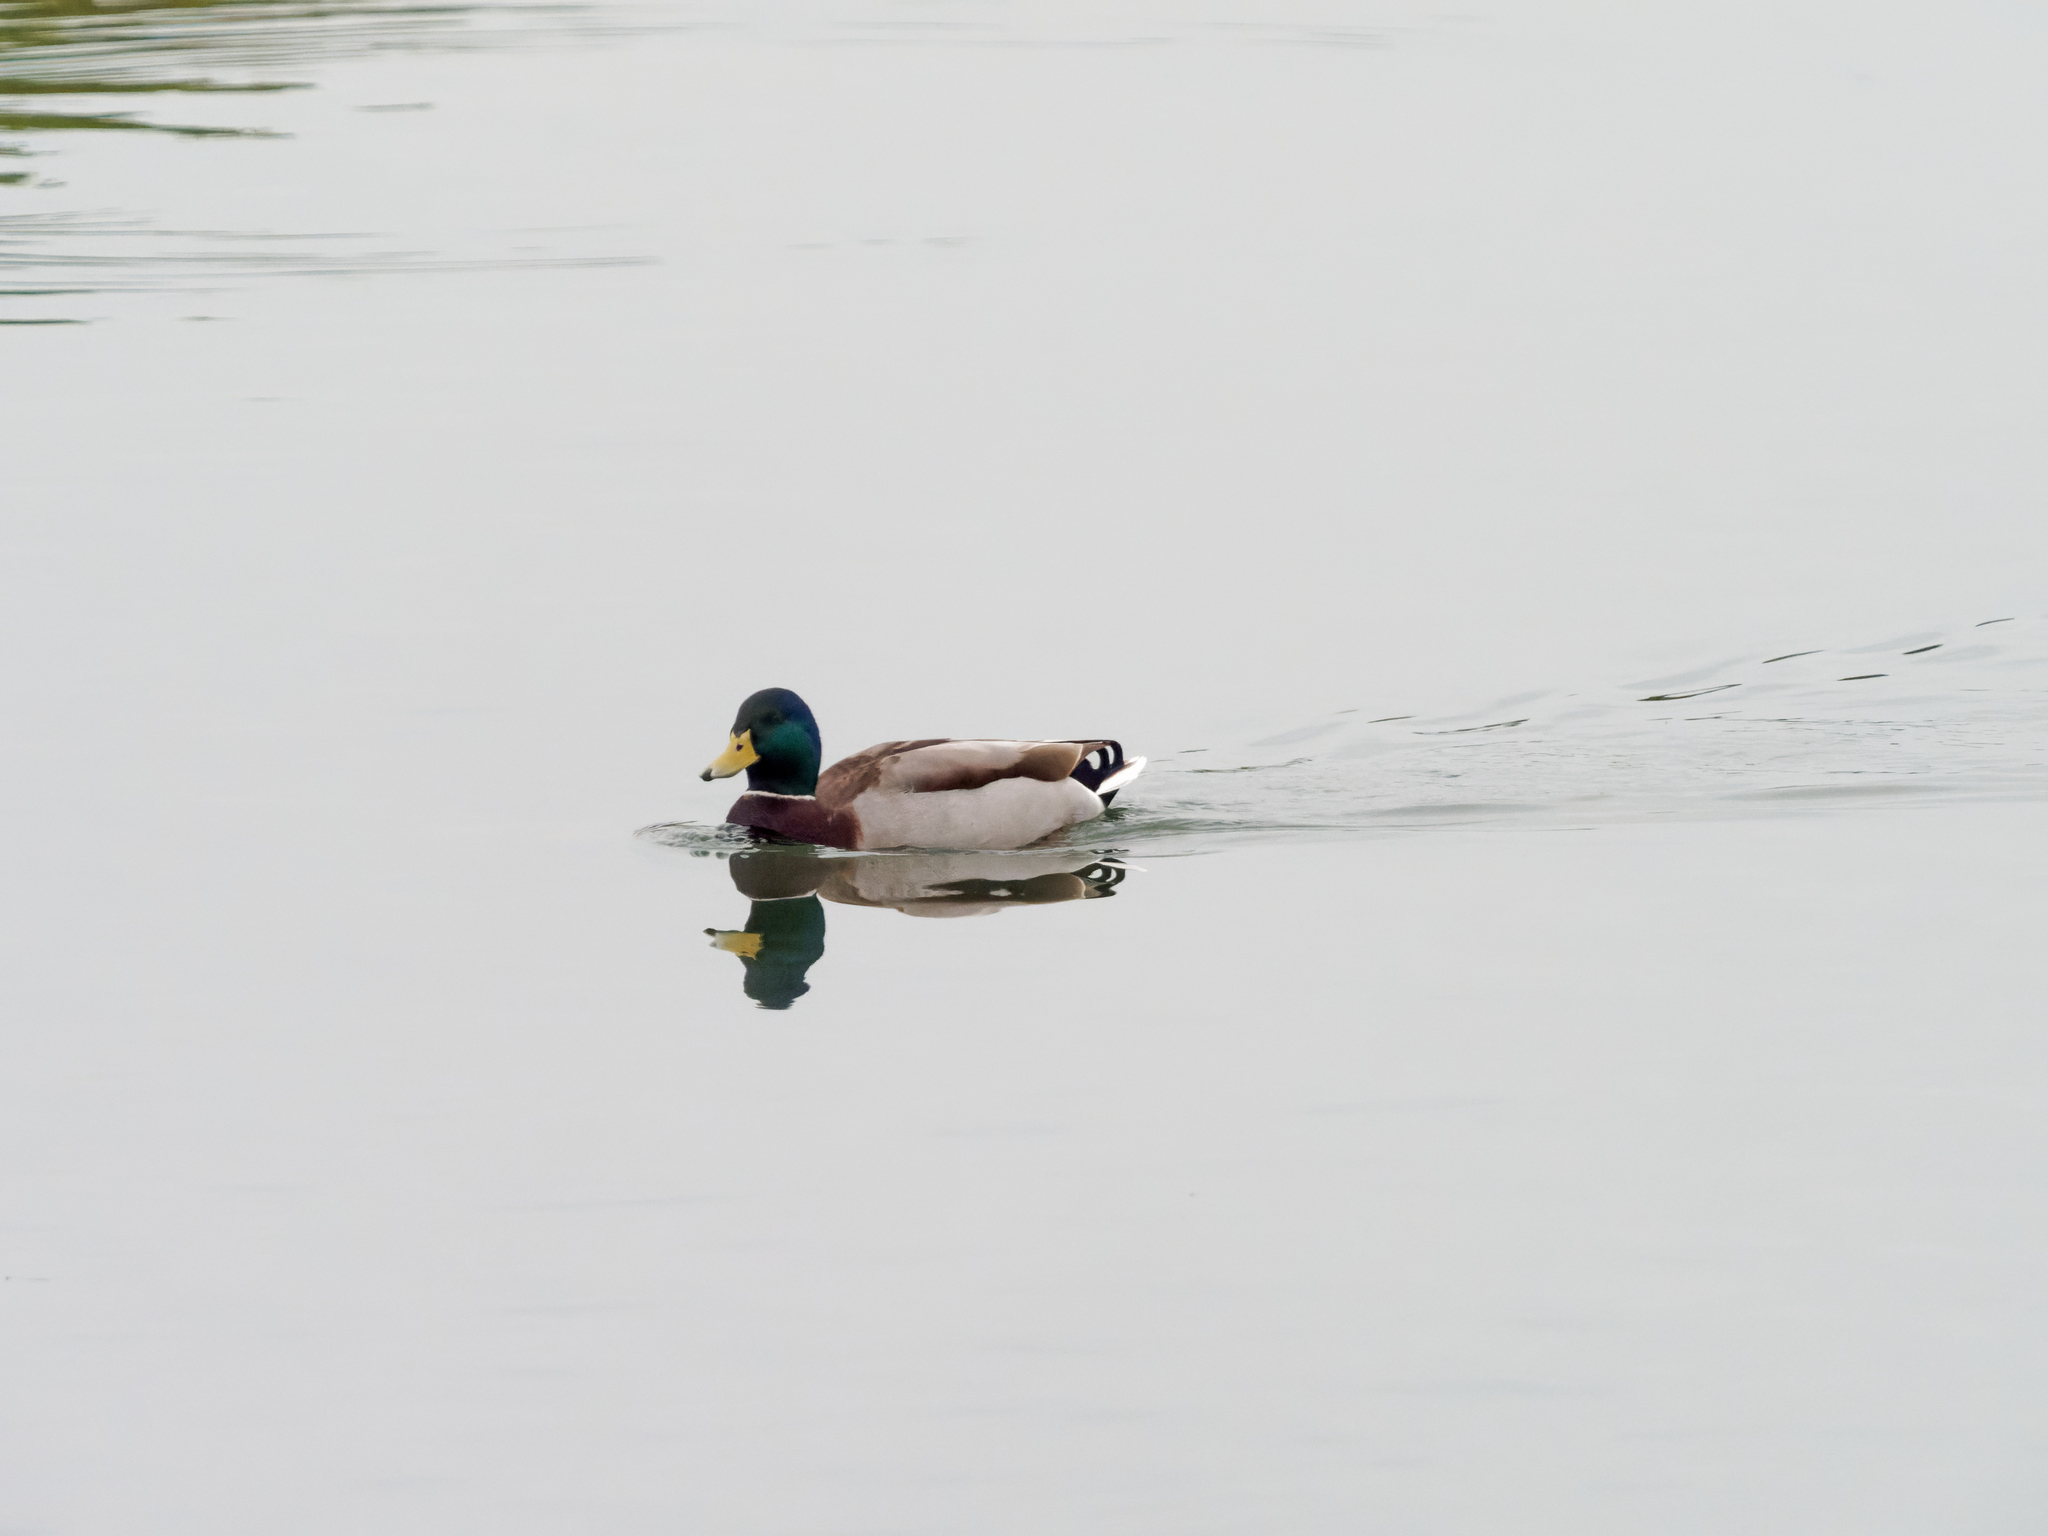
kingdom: Animalia
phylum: Chordata
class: Aves
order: Anseriformes
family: Anatidae
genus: Anas
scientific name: Anas platyrhynchos
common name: Mallard
